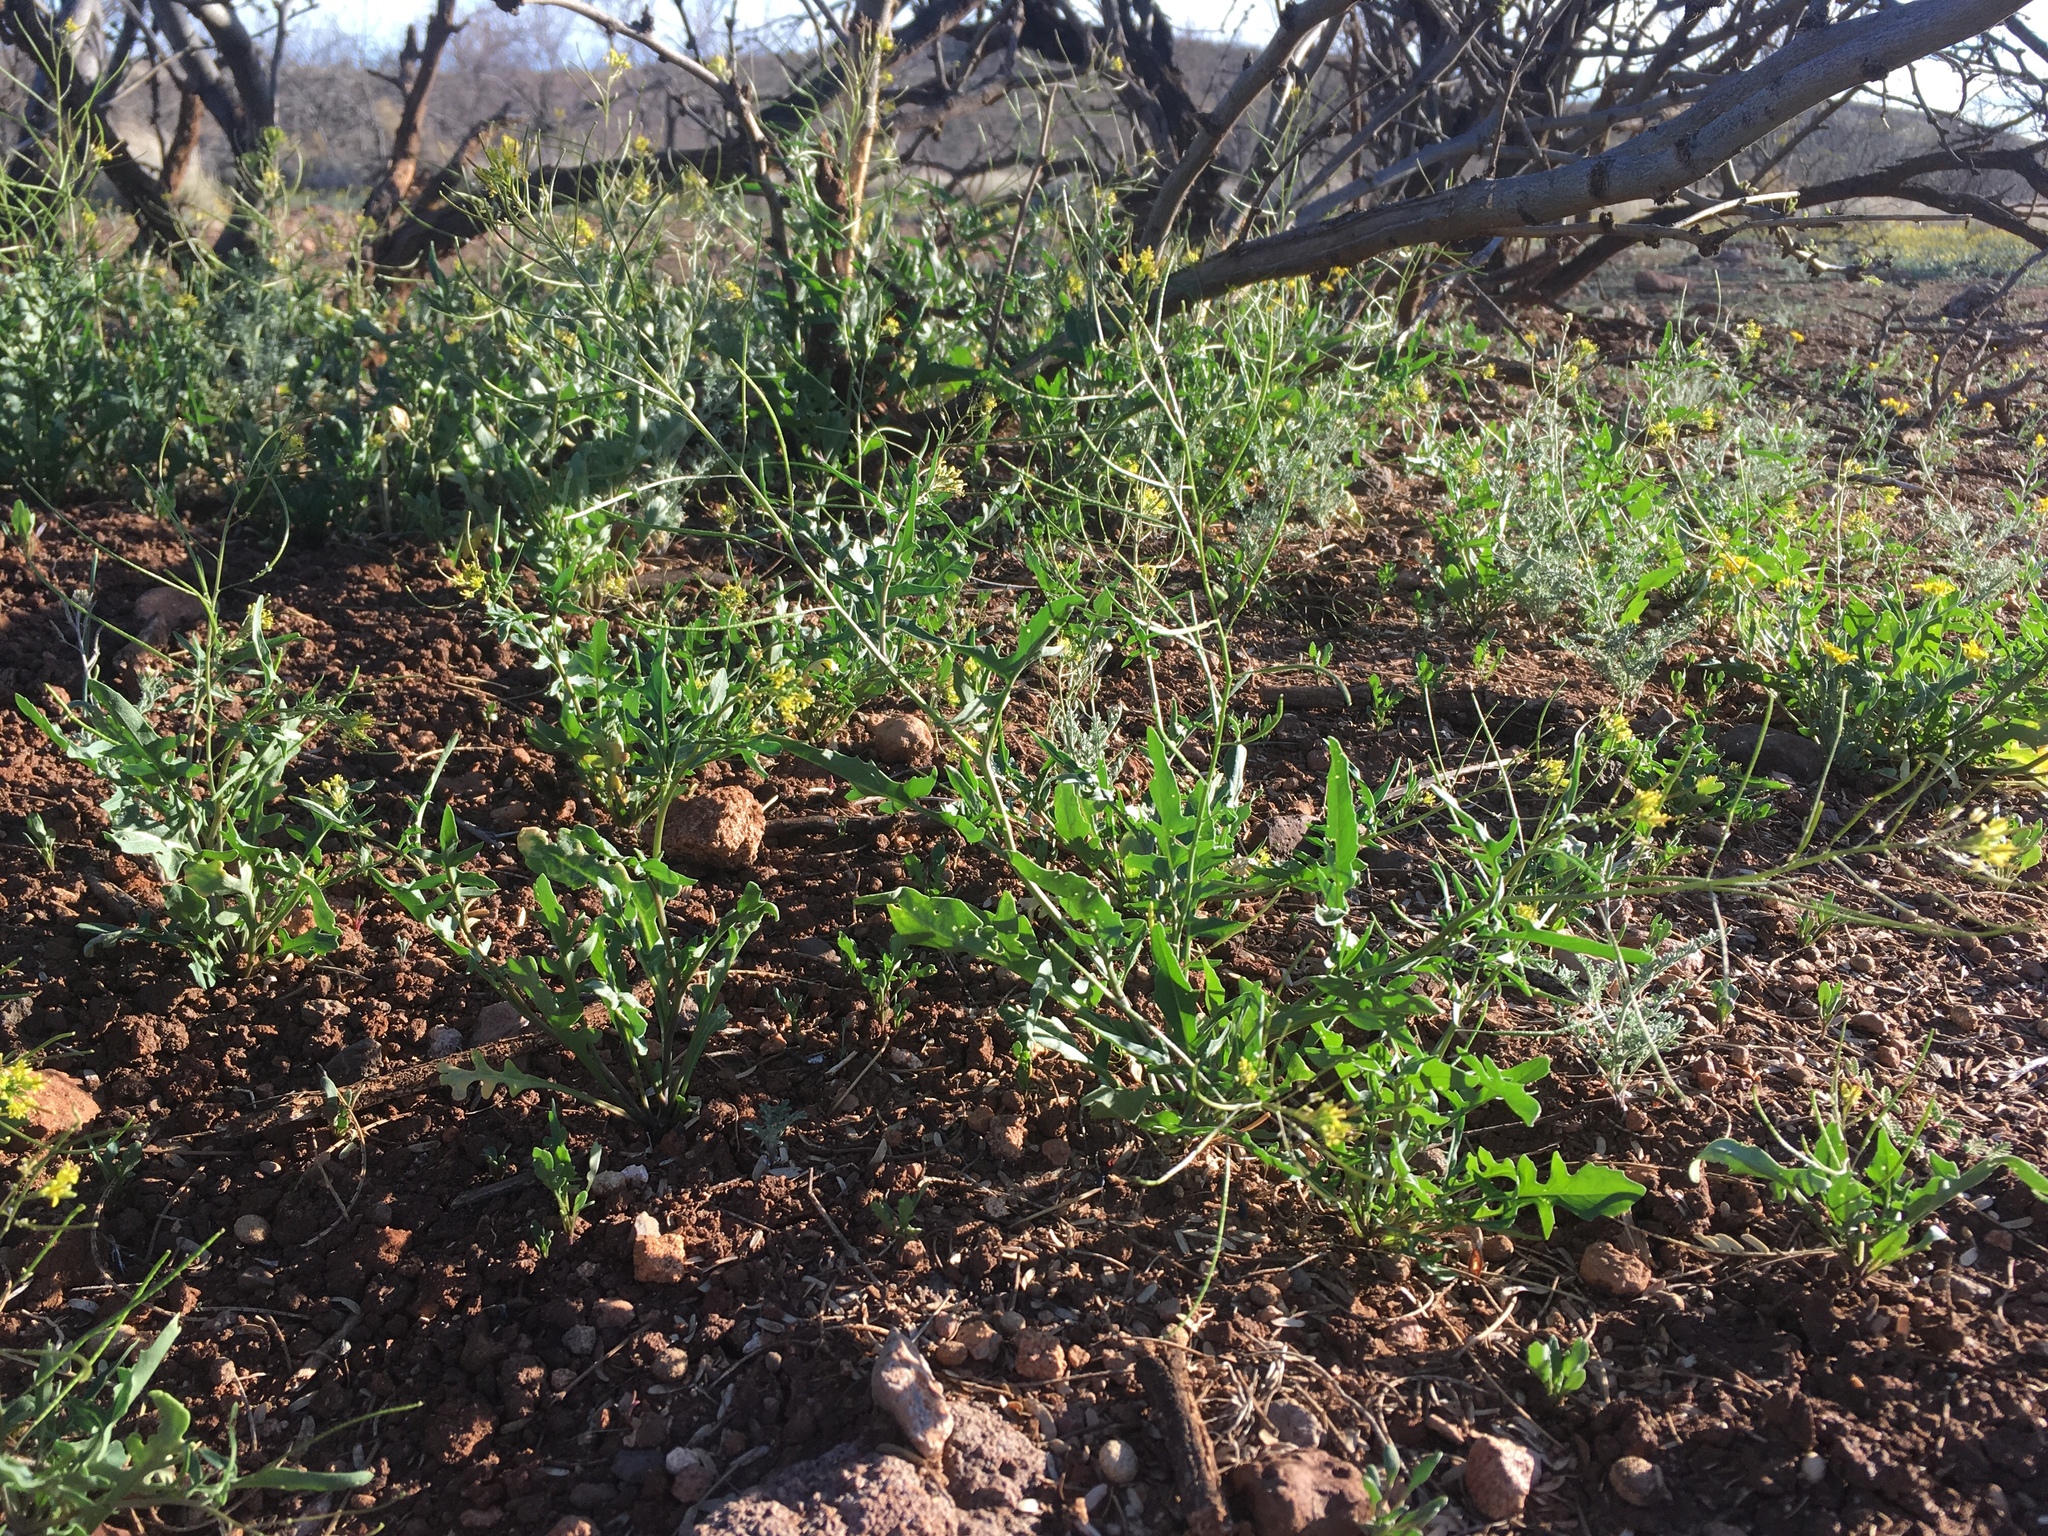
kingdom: Plantae
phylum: Tracheophyta
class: Magnoliopsida
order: Brassicales
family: Brassicaceae
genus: Sisymbrium
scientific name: Sisymbrium irio
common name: London rocket
